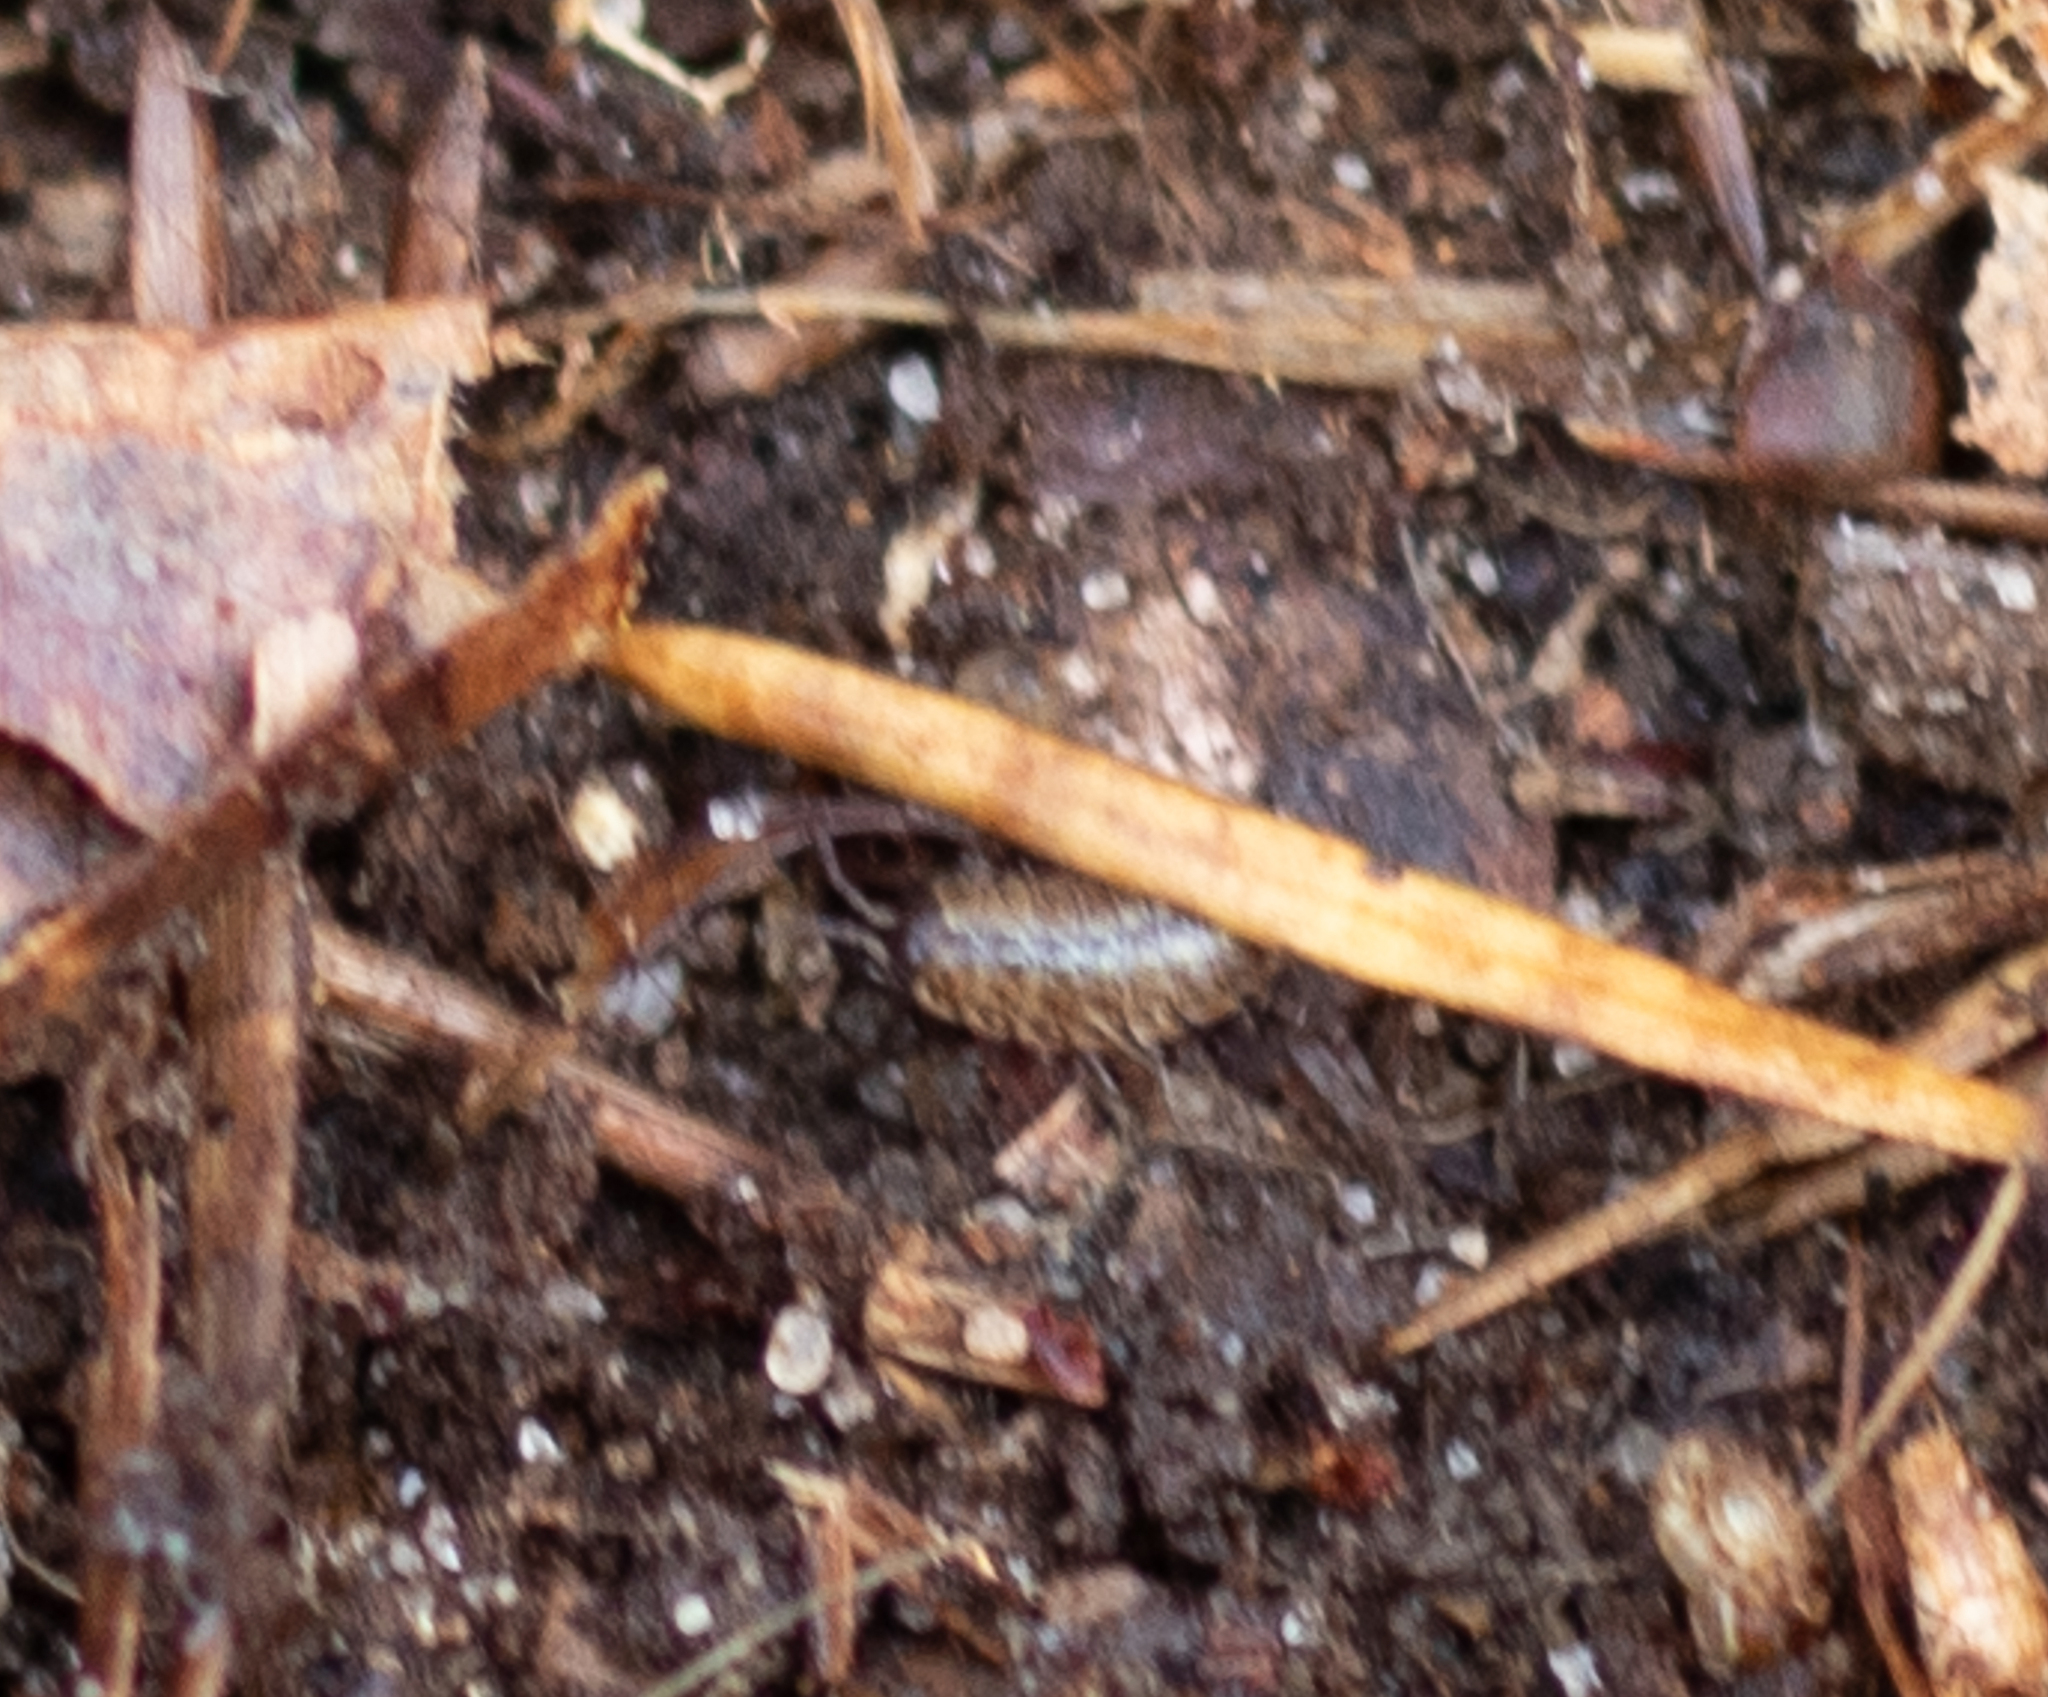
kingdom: Animalia
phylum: Arthropoda
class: Malacostraca
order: Isopoda
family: Philosciidae
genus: Philoscia
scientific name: Philoscia muscorum
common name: Common striped woodlouse
